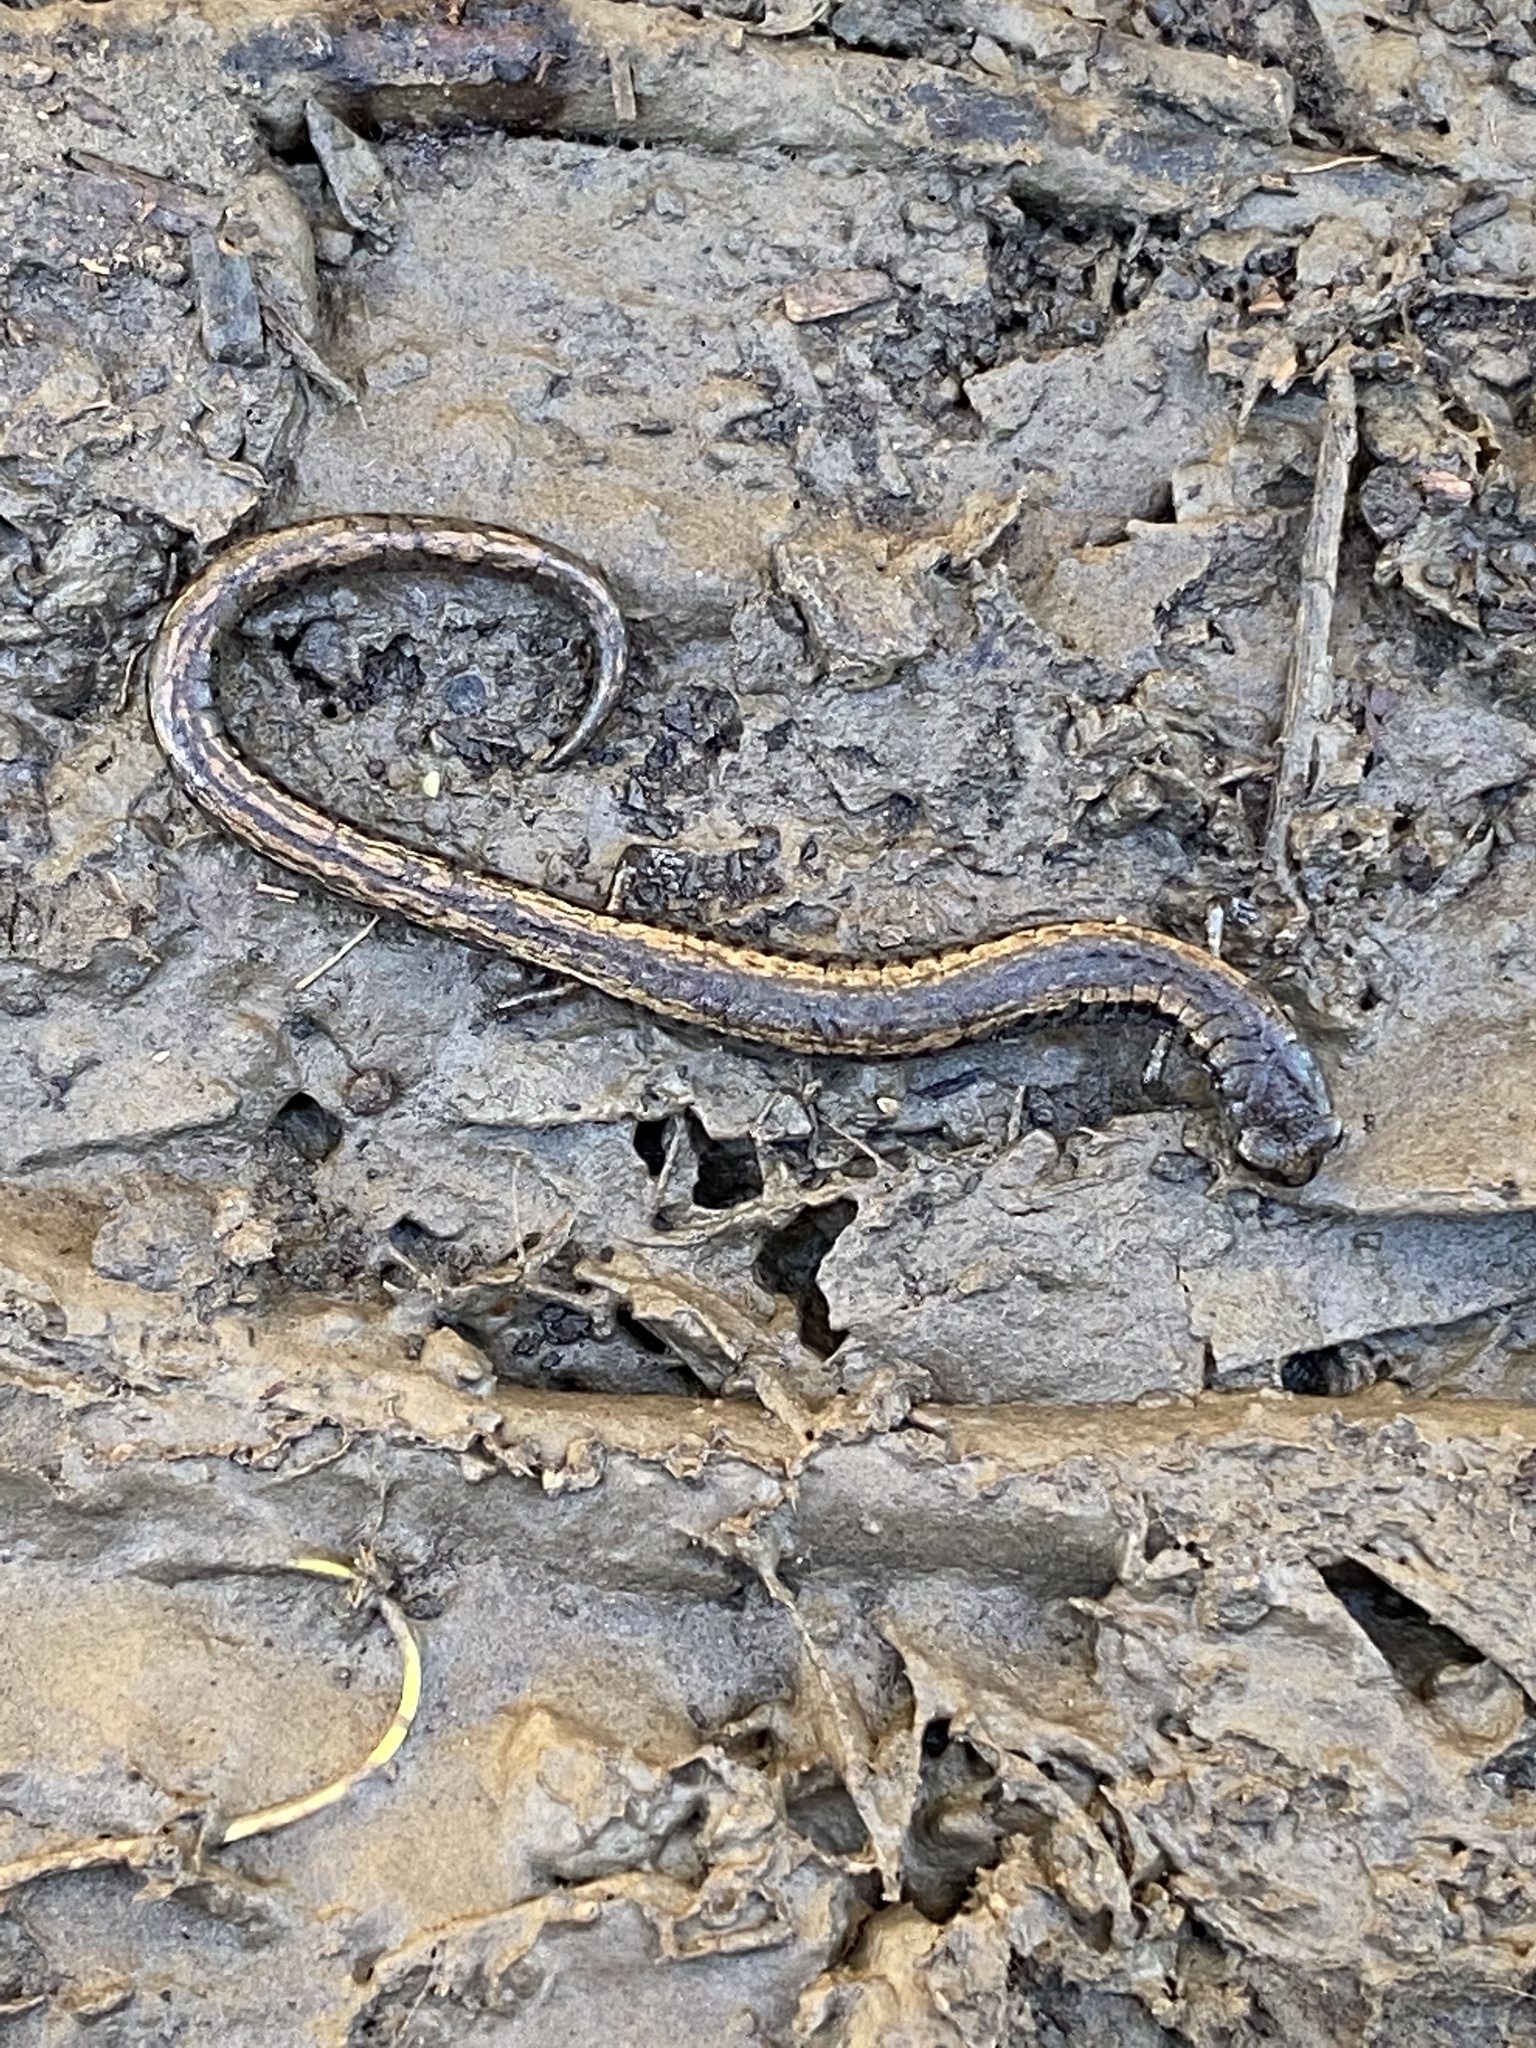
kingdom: Animalia
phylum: Chordata
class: Amphibia
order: Caudata
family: Plethodontidae
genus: Batrachoseps
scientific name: Batrachoseps attenuatus
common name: California slender salamander
